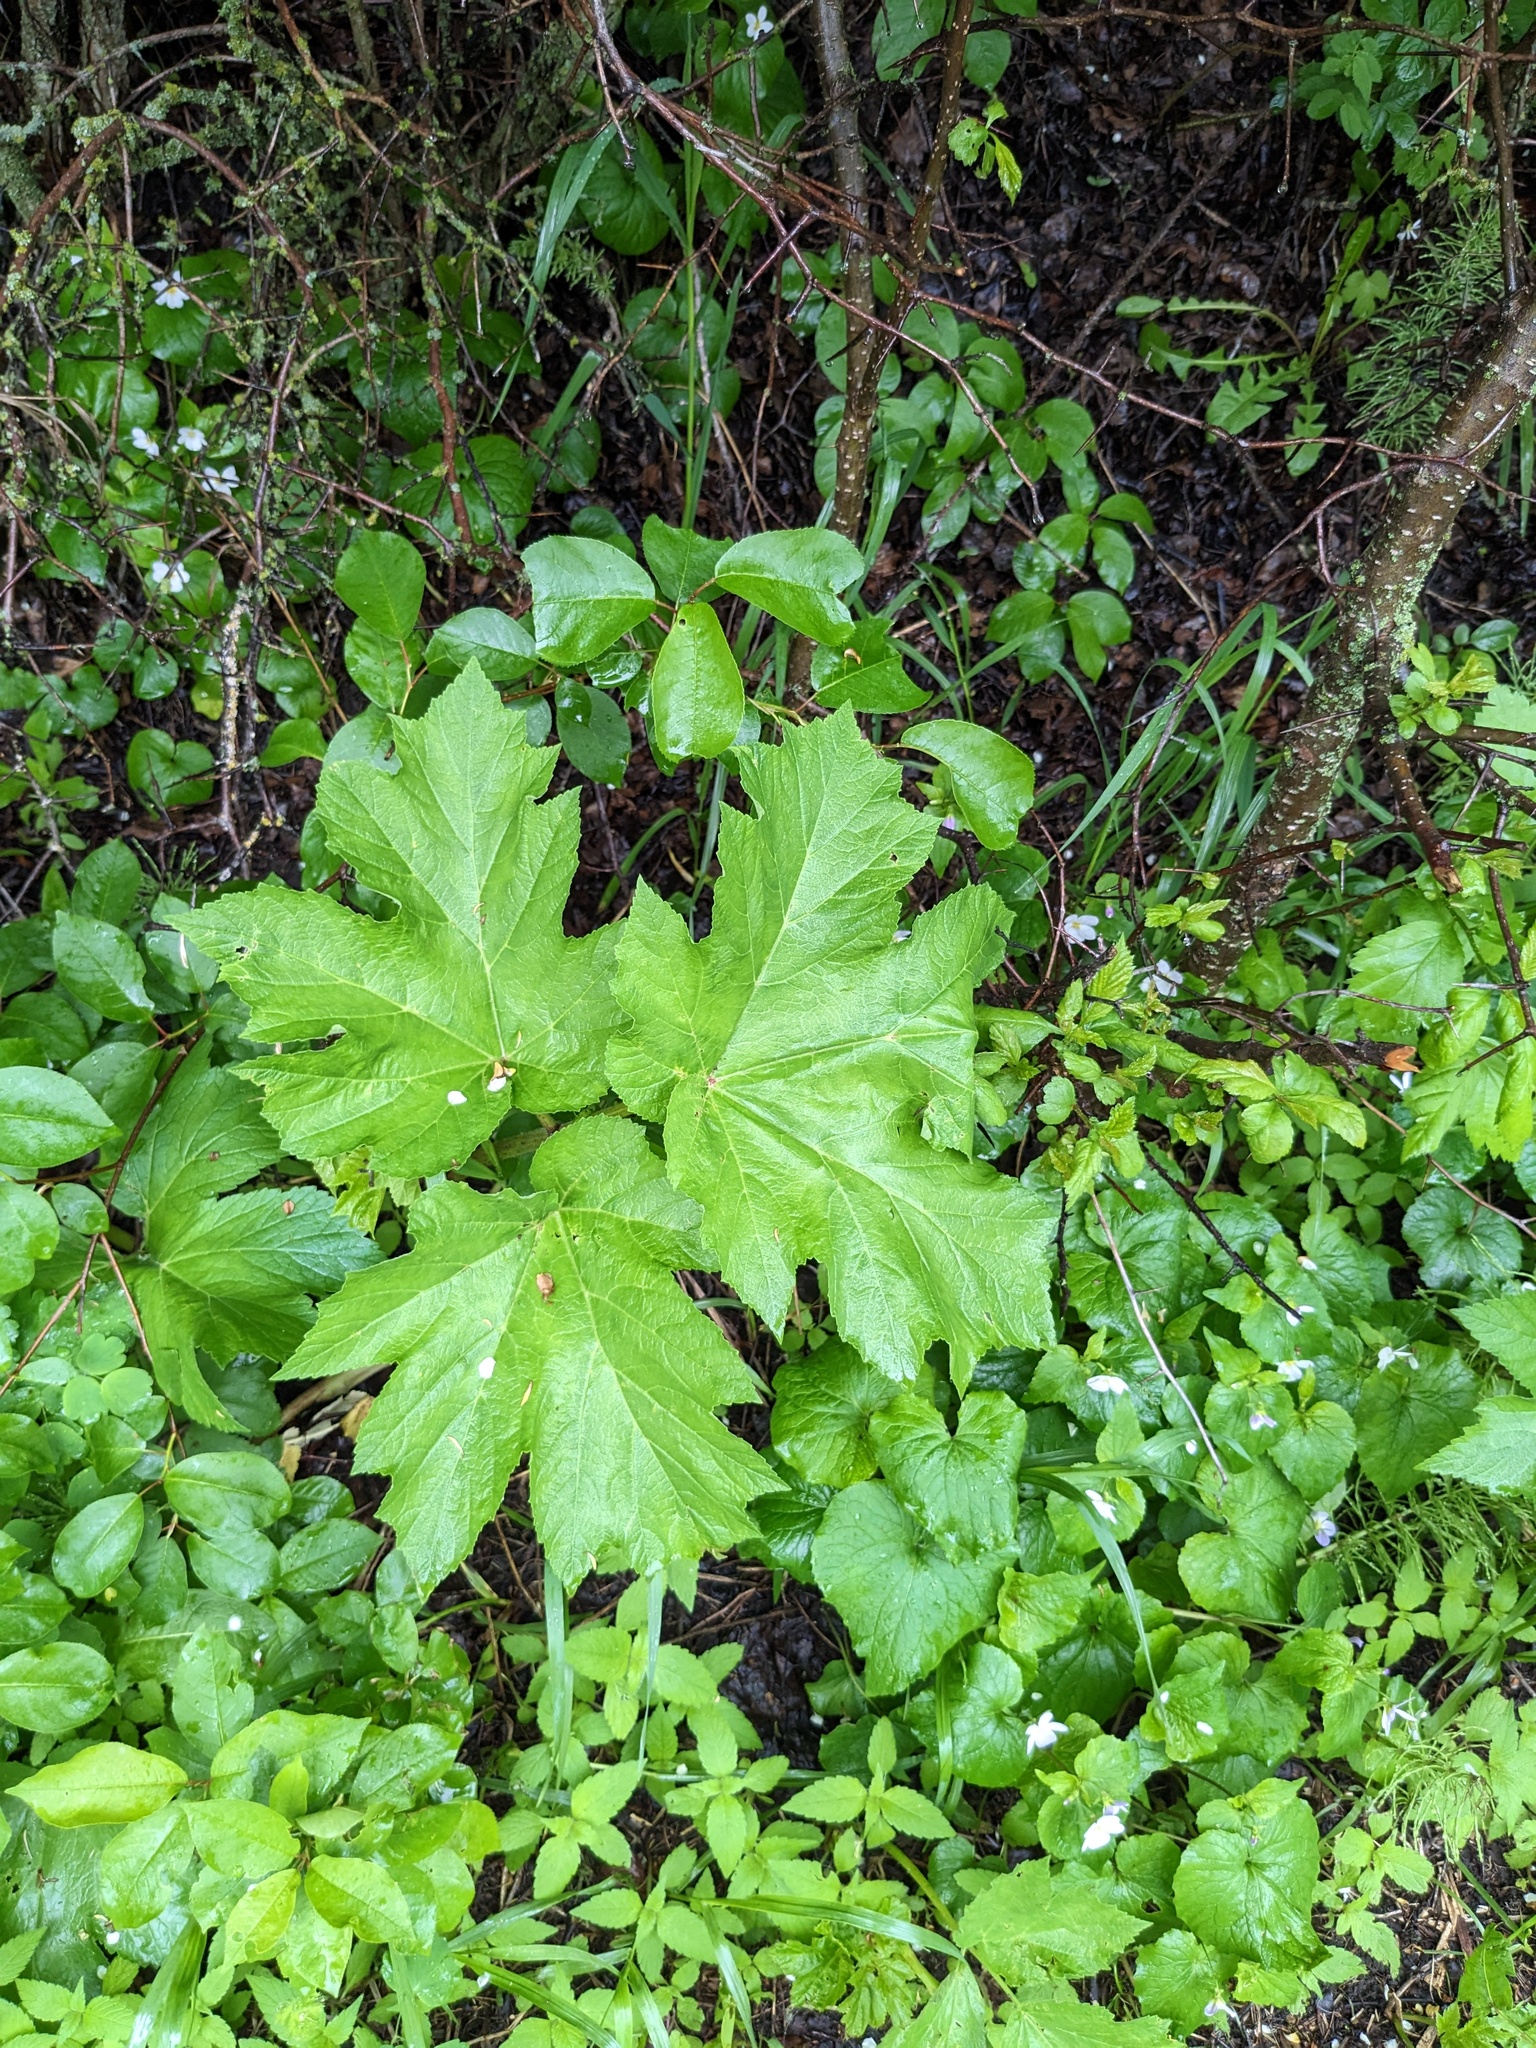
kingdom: Plantae
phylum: Tracheophyta
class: Magnoliopsida
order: Apiales
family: Apiaceae
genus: Heracleum
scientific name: Heracleum maximum
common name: American cow parsnip
